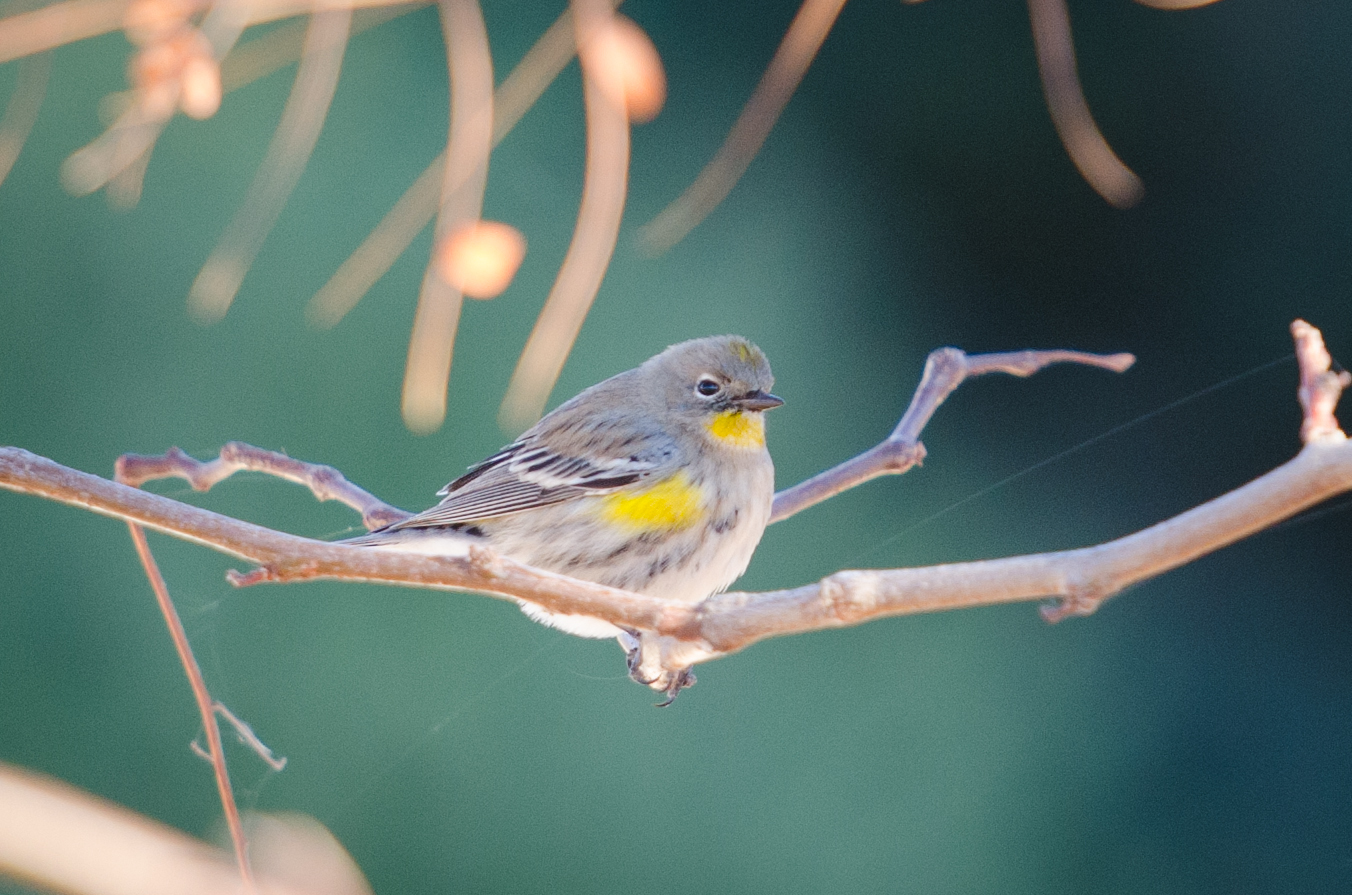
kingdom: Animalia
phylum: Chordata
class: Aves
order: Passeriformes
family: Parulidae
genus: Setophaga
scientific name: Setophaga auduboni
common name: Audubon's warbler
